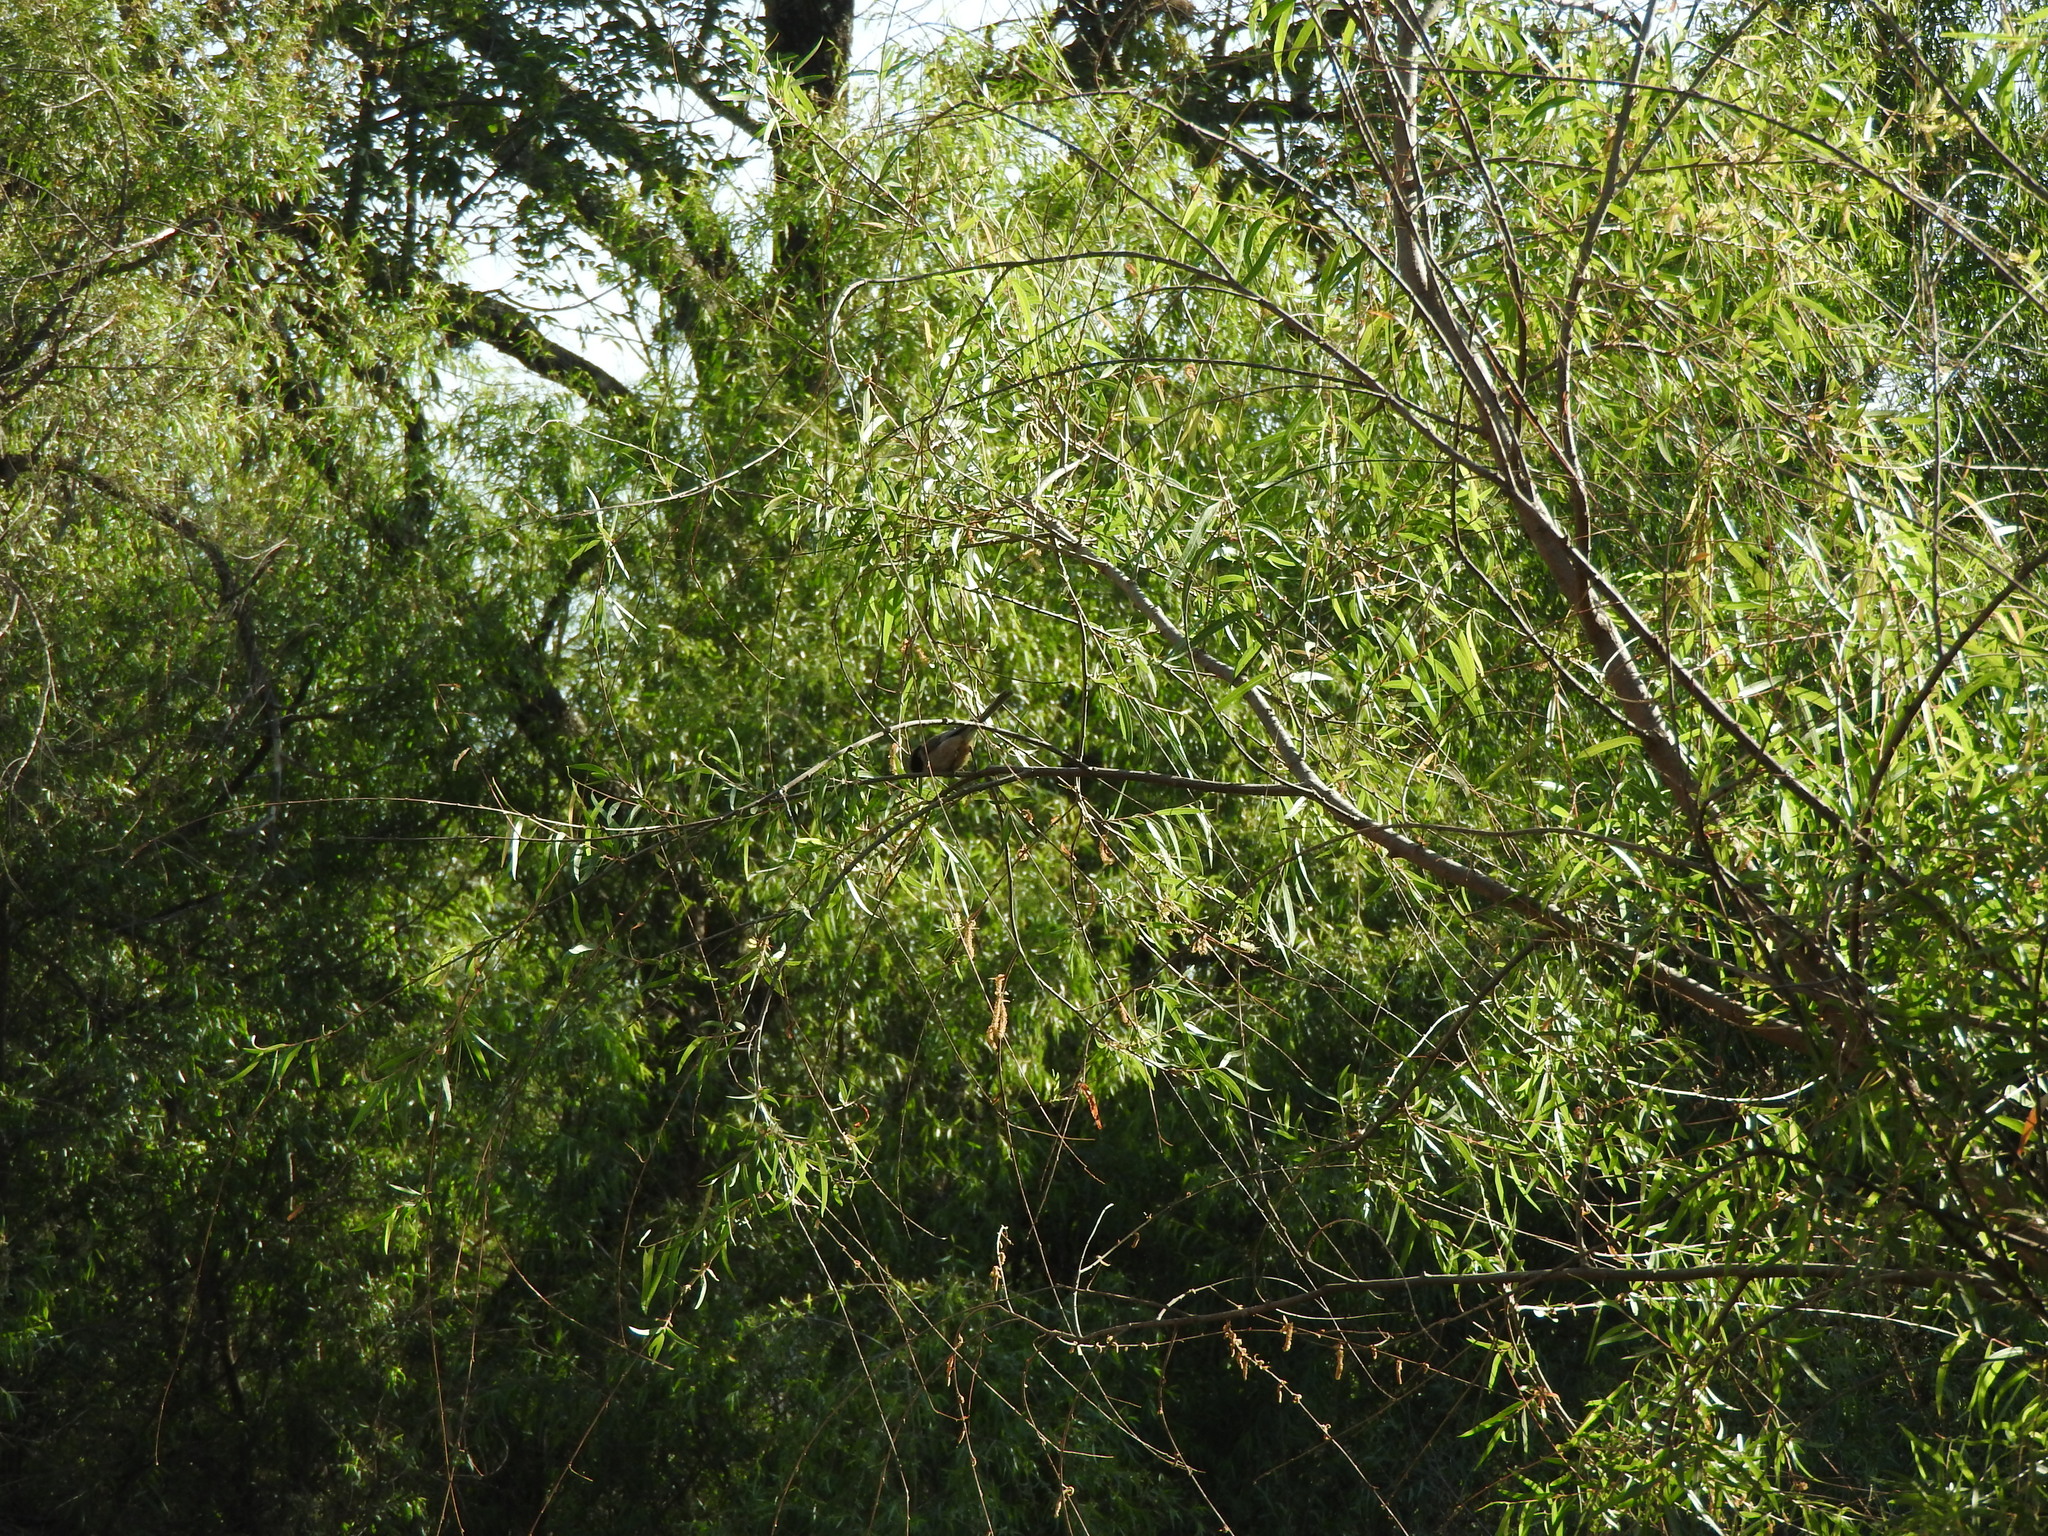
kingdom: Animalia
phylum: Chordata
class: Aves
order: Passeriformes
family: Aegithalidae
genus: Psaltriparus
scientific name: Psaltriparus minimus
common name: American bushtit
